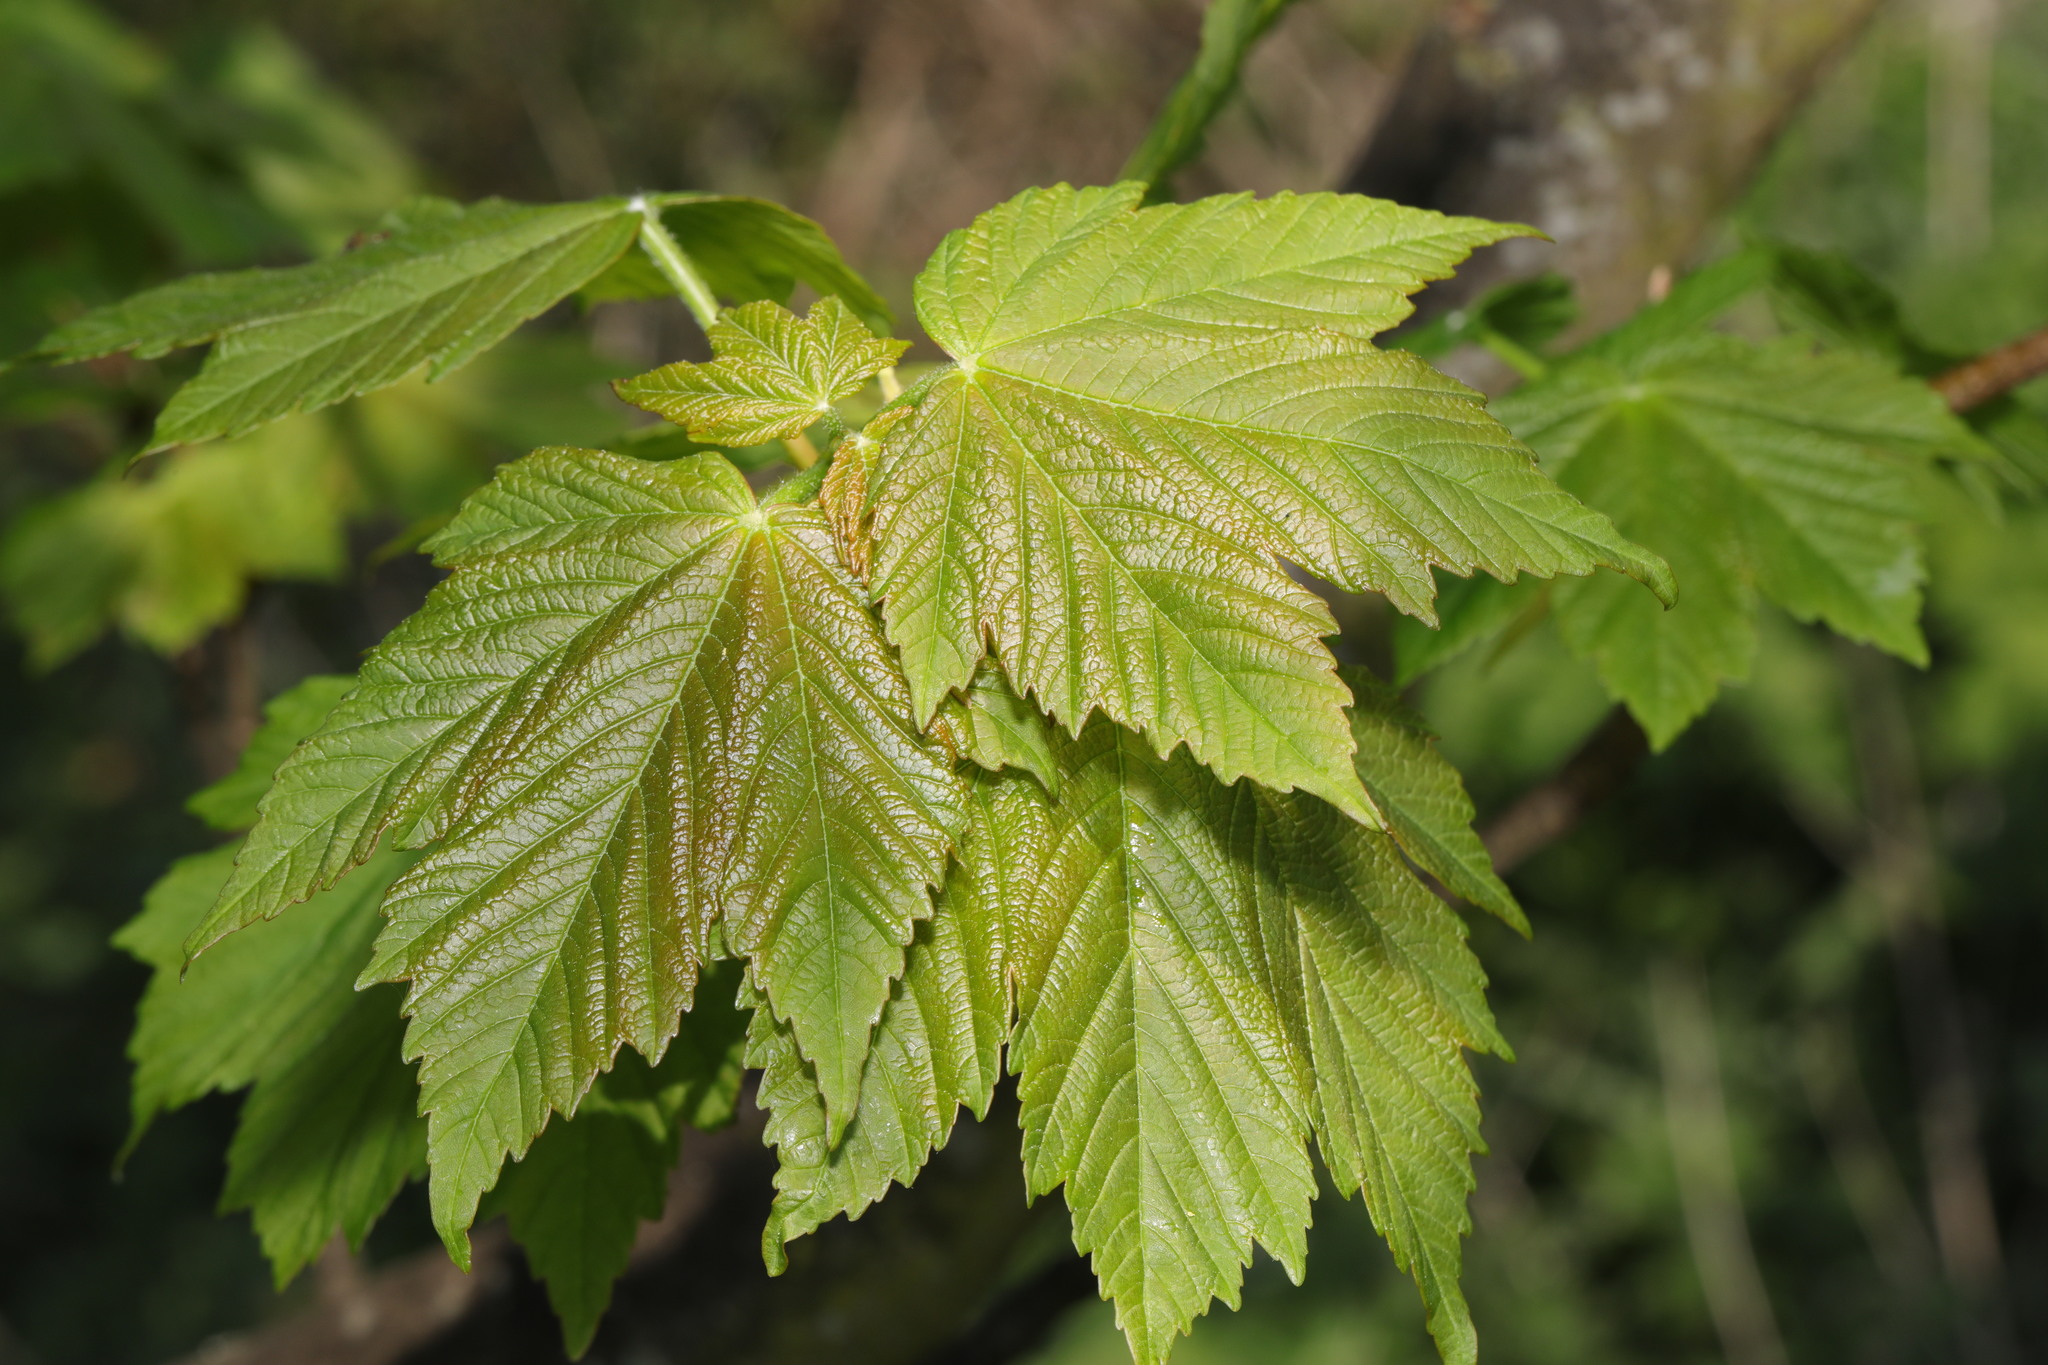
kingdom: Plantae
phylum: Tracheophyta
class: Magnoliopsida
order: Sapindales
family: Sapindaceae
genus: Acer
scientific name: Acer pseudoplatanus
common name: Sycamore
